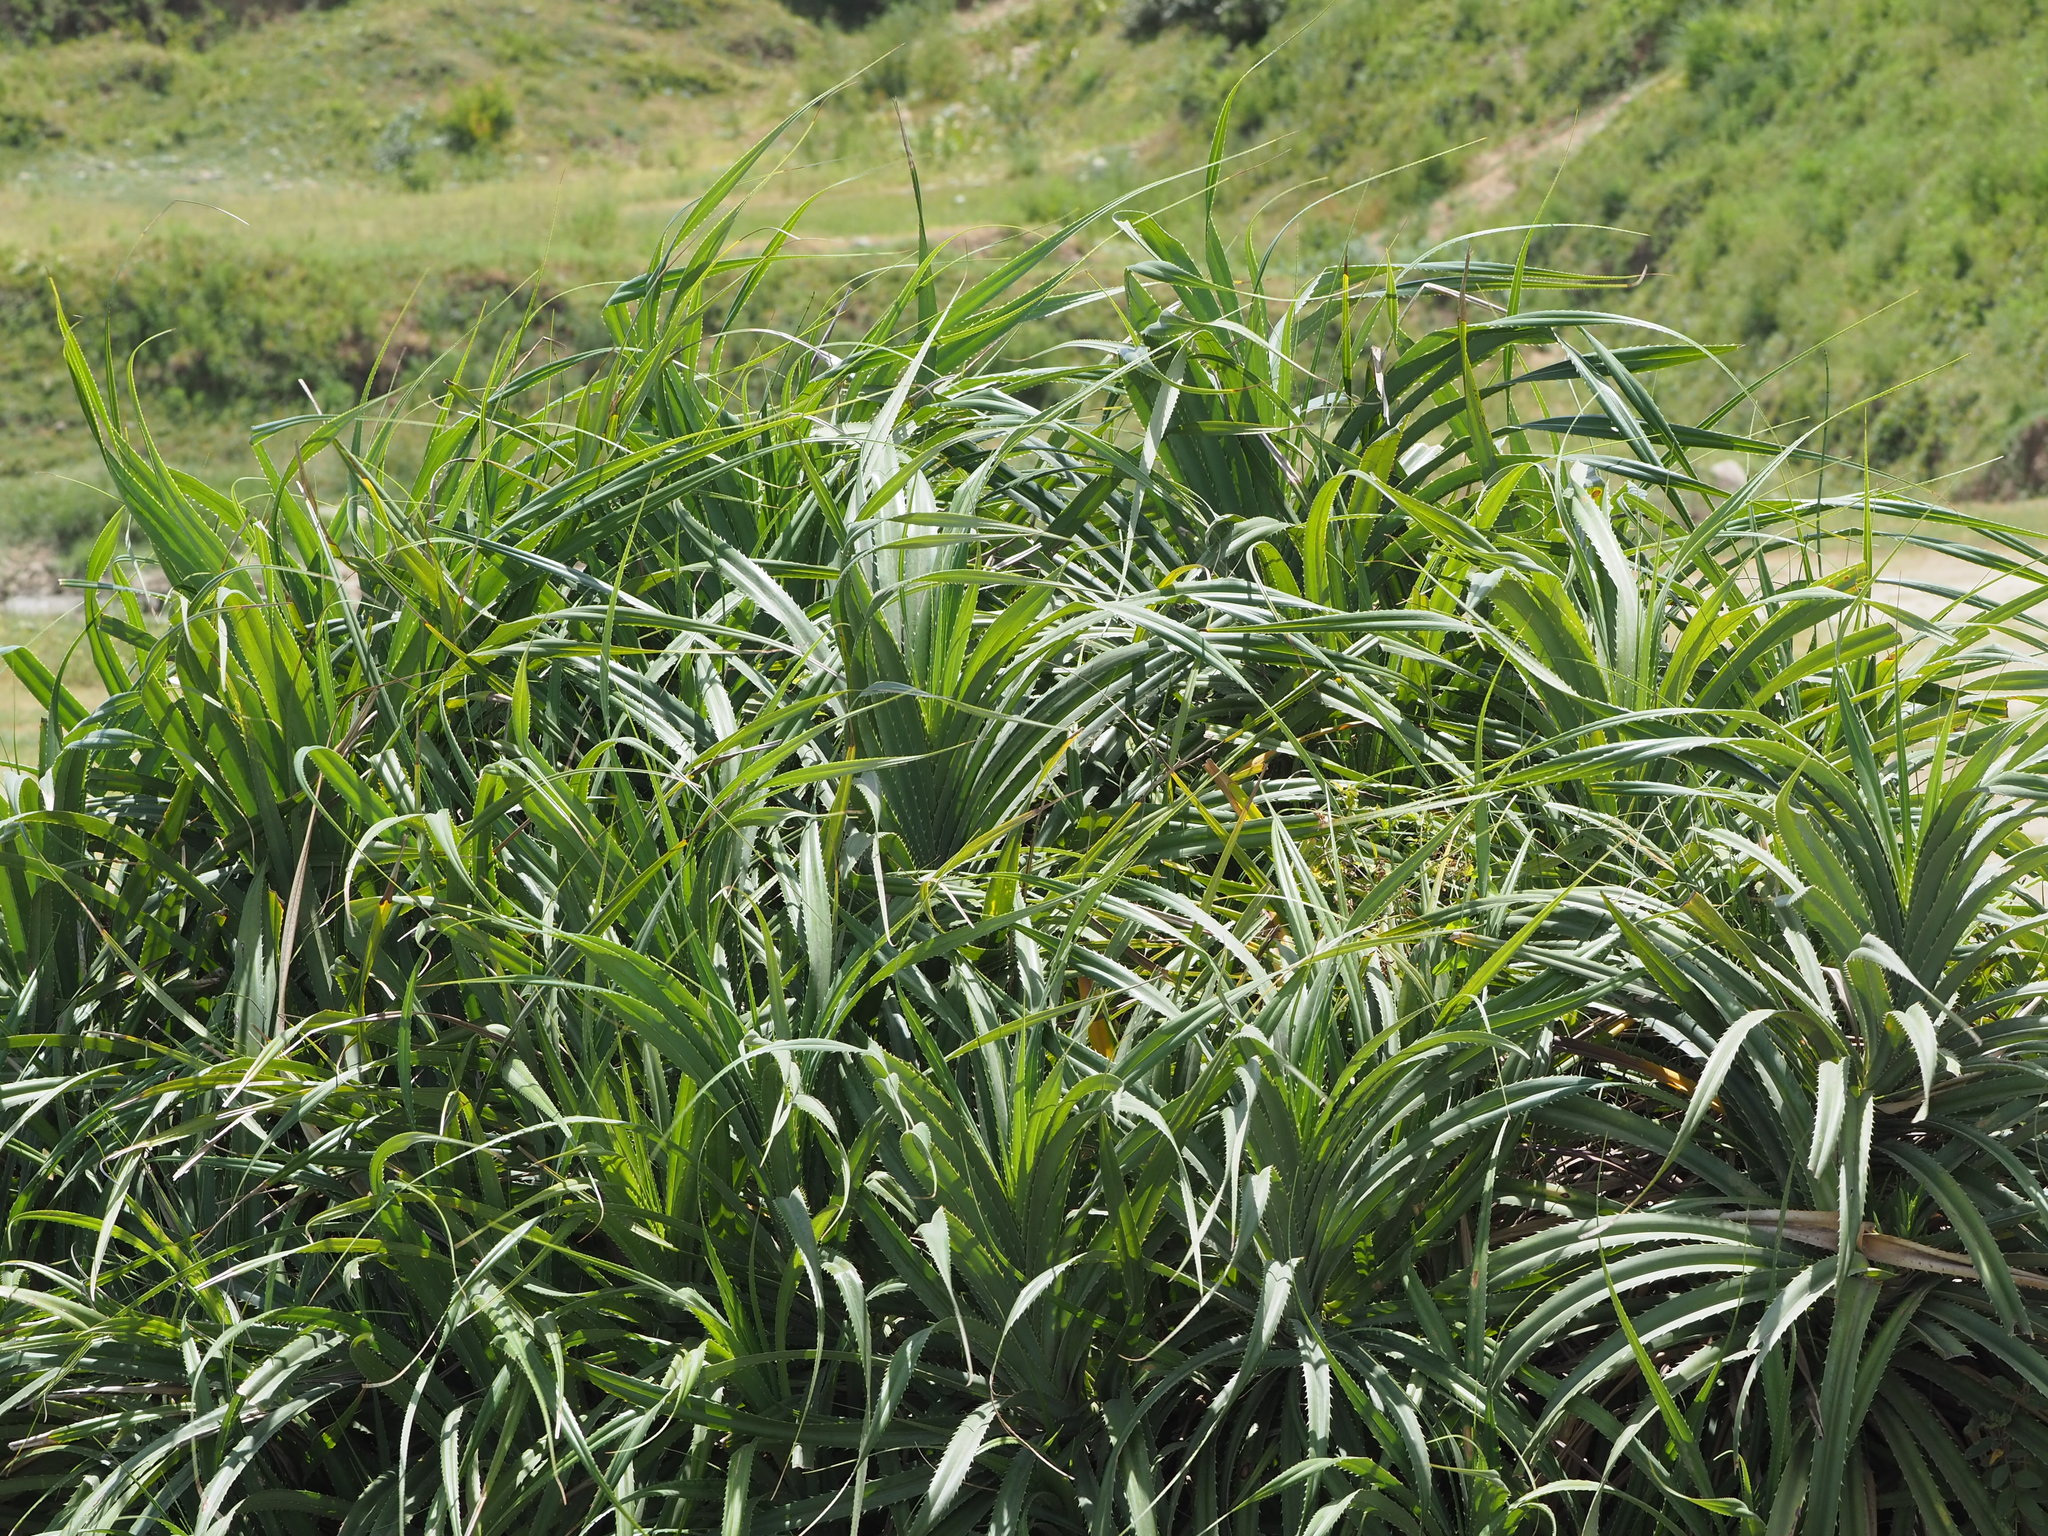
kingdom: Plantae
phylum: Tracheophyta
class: Liliopsida
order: Pandanales
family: Pandanaceae
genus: Pandanus
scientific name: Pandanus odorifer
